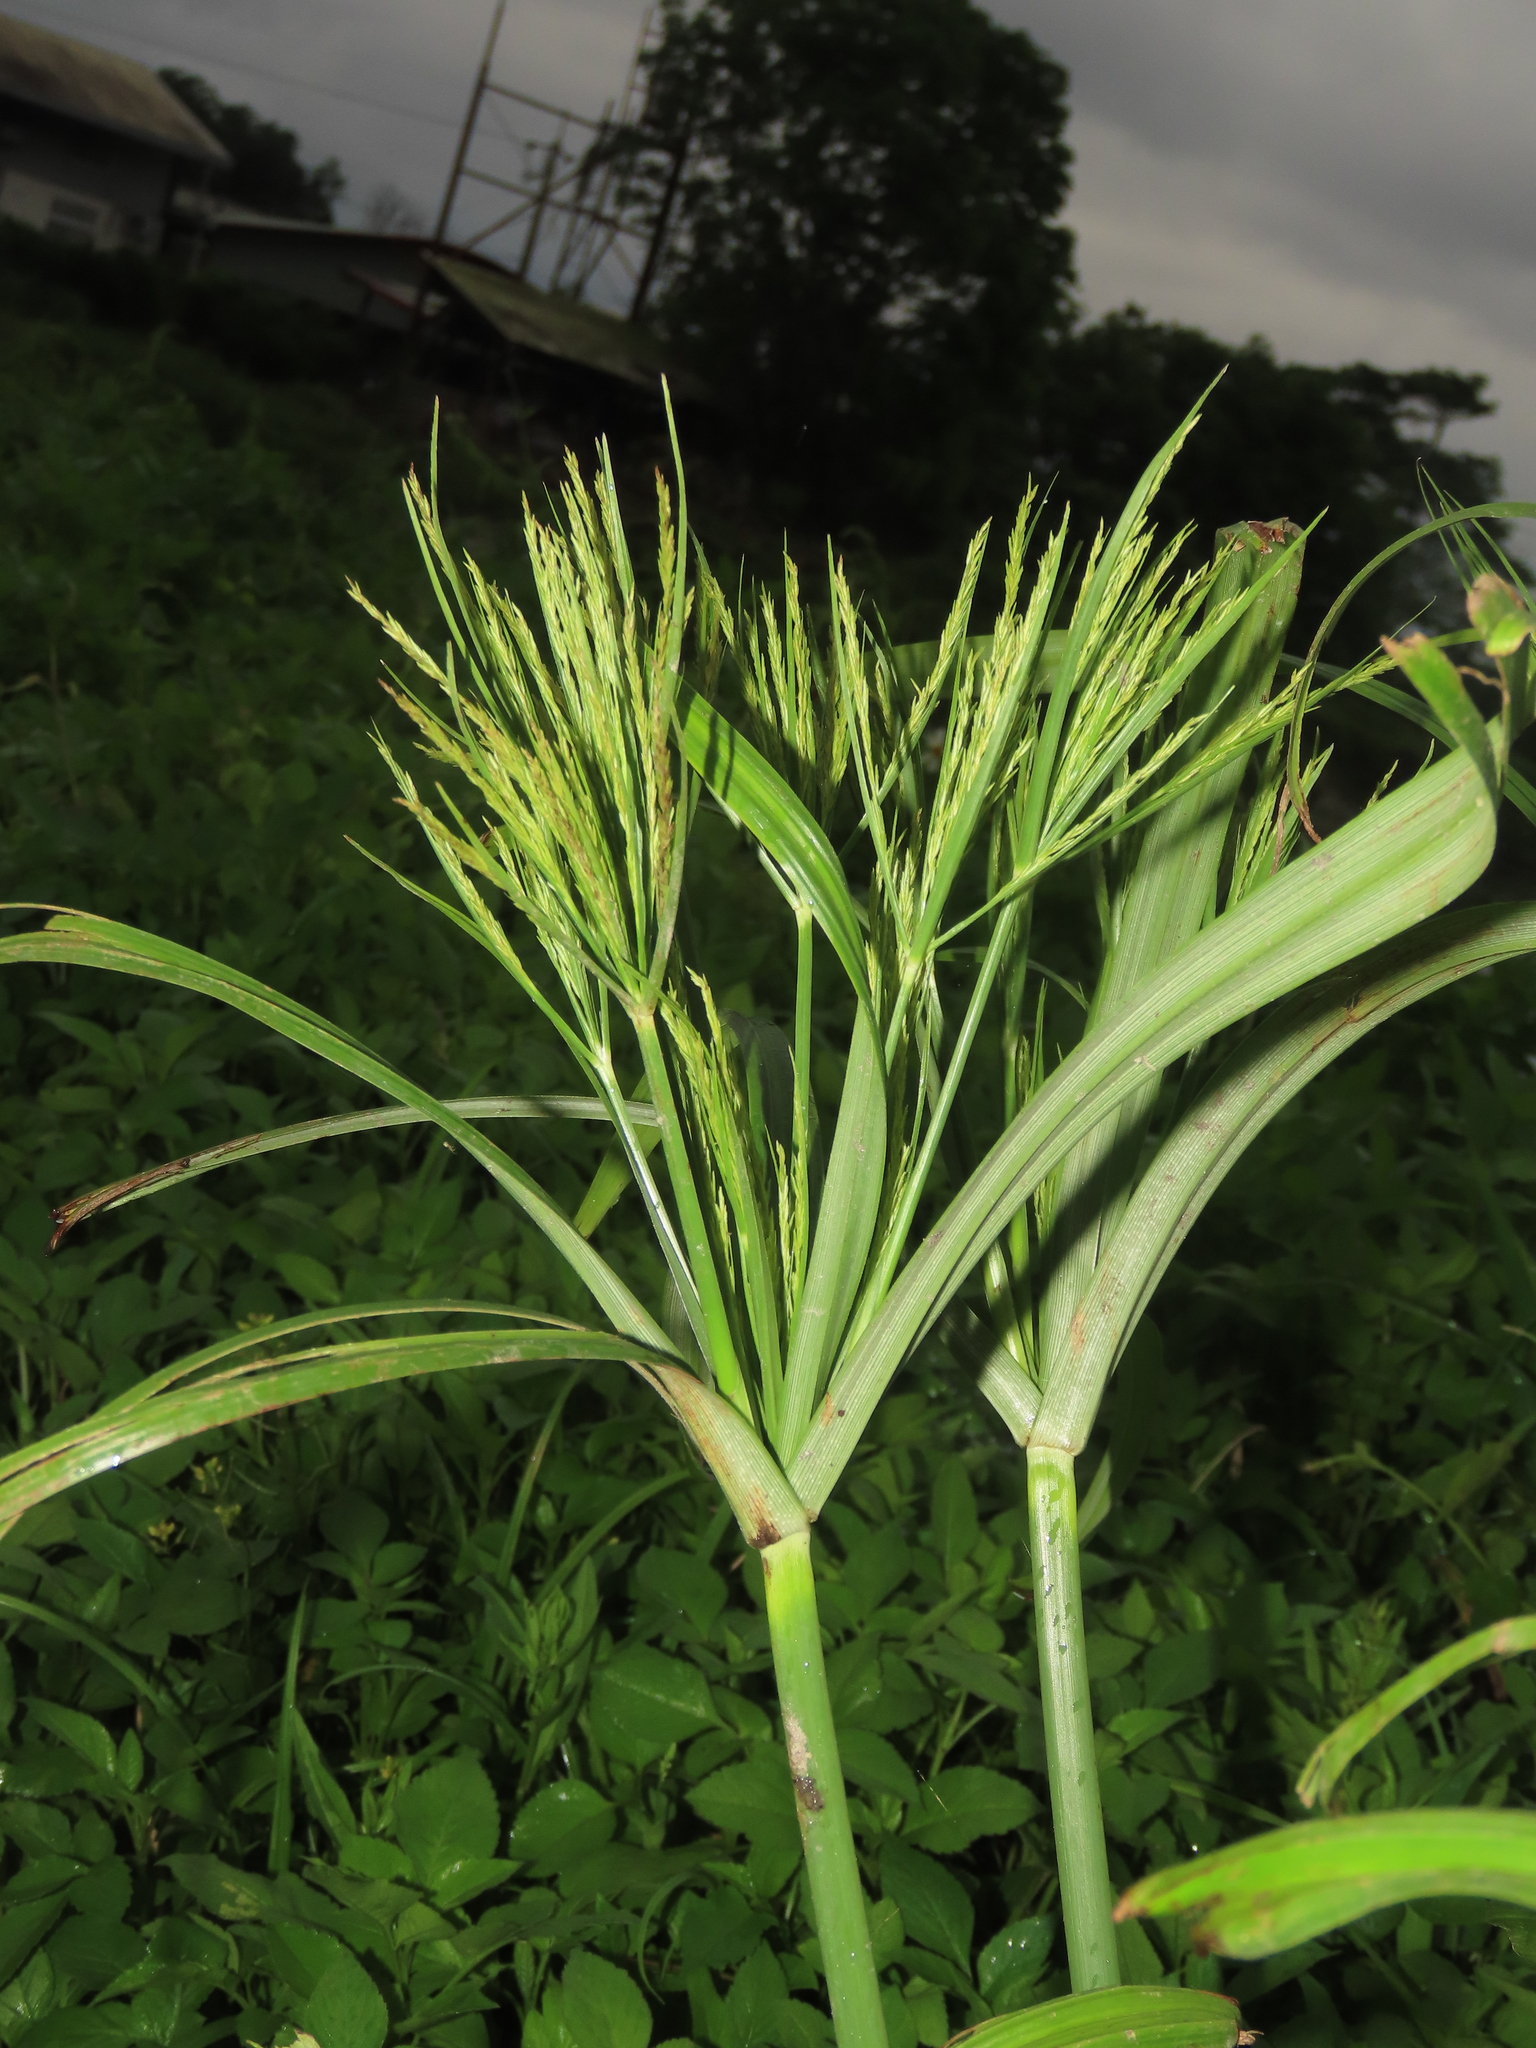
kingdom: Plantae
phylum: Tracheophyta
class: Liliopsida
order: Poales
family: Cyperaceae
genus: Cyperus
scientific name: Cyperus nutans
